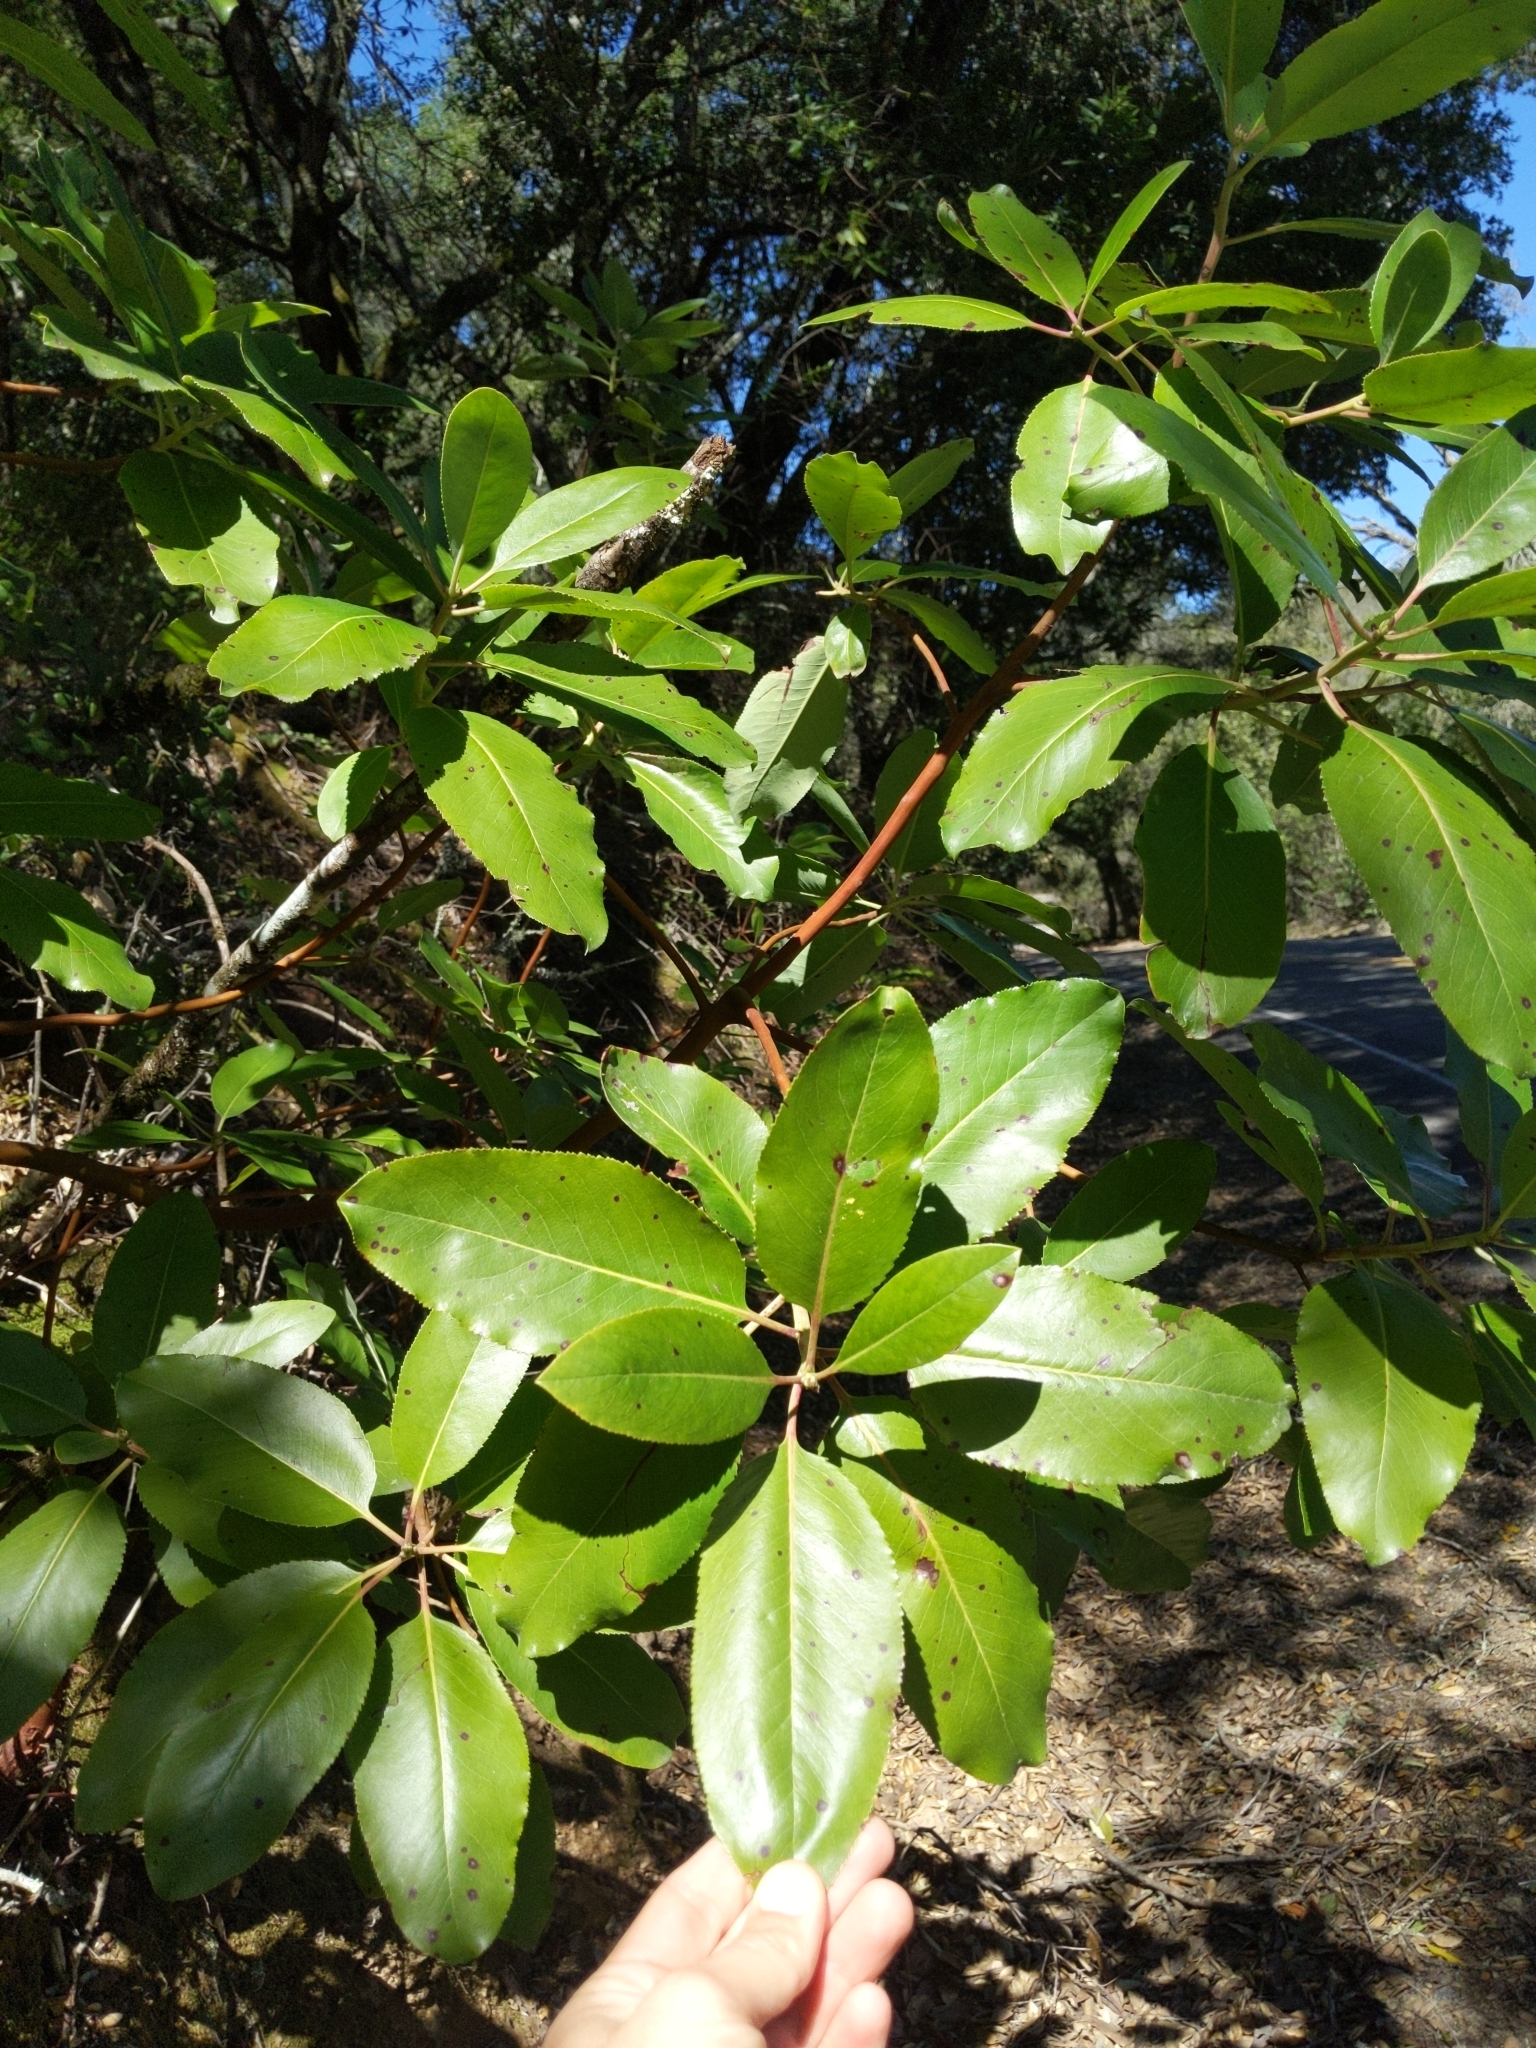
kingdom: Plantae
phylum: Tracheophyta
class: Magnoliopsida
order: Ericales
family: Ericaceae
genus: Arbutus
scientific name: Arbutus menziesii
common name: Pacific madrone
